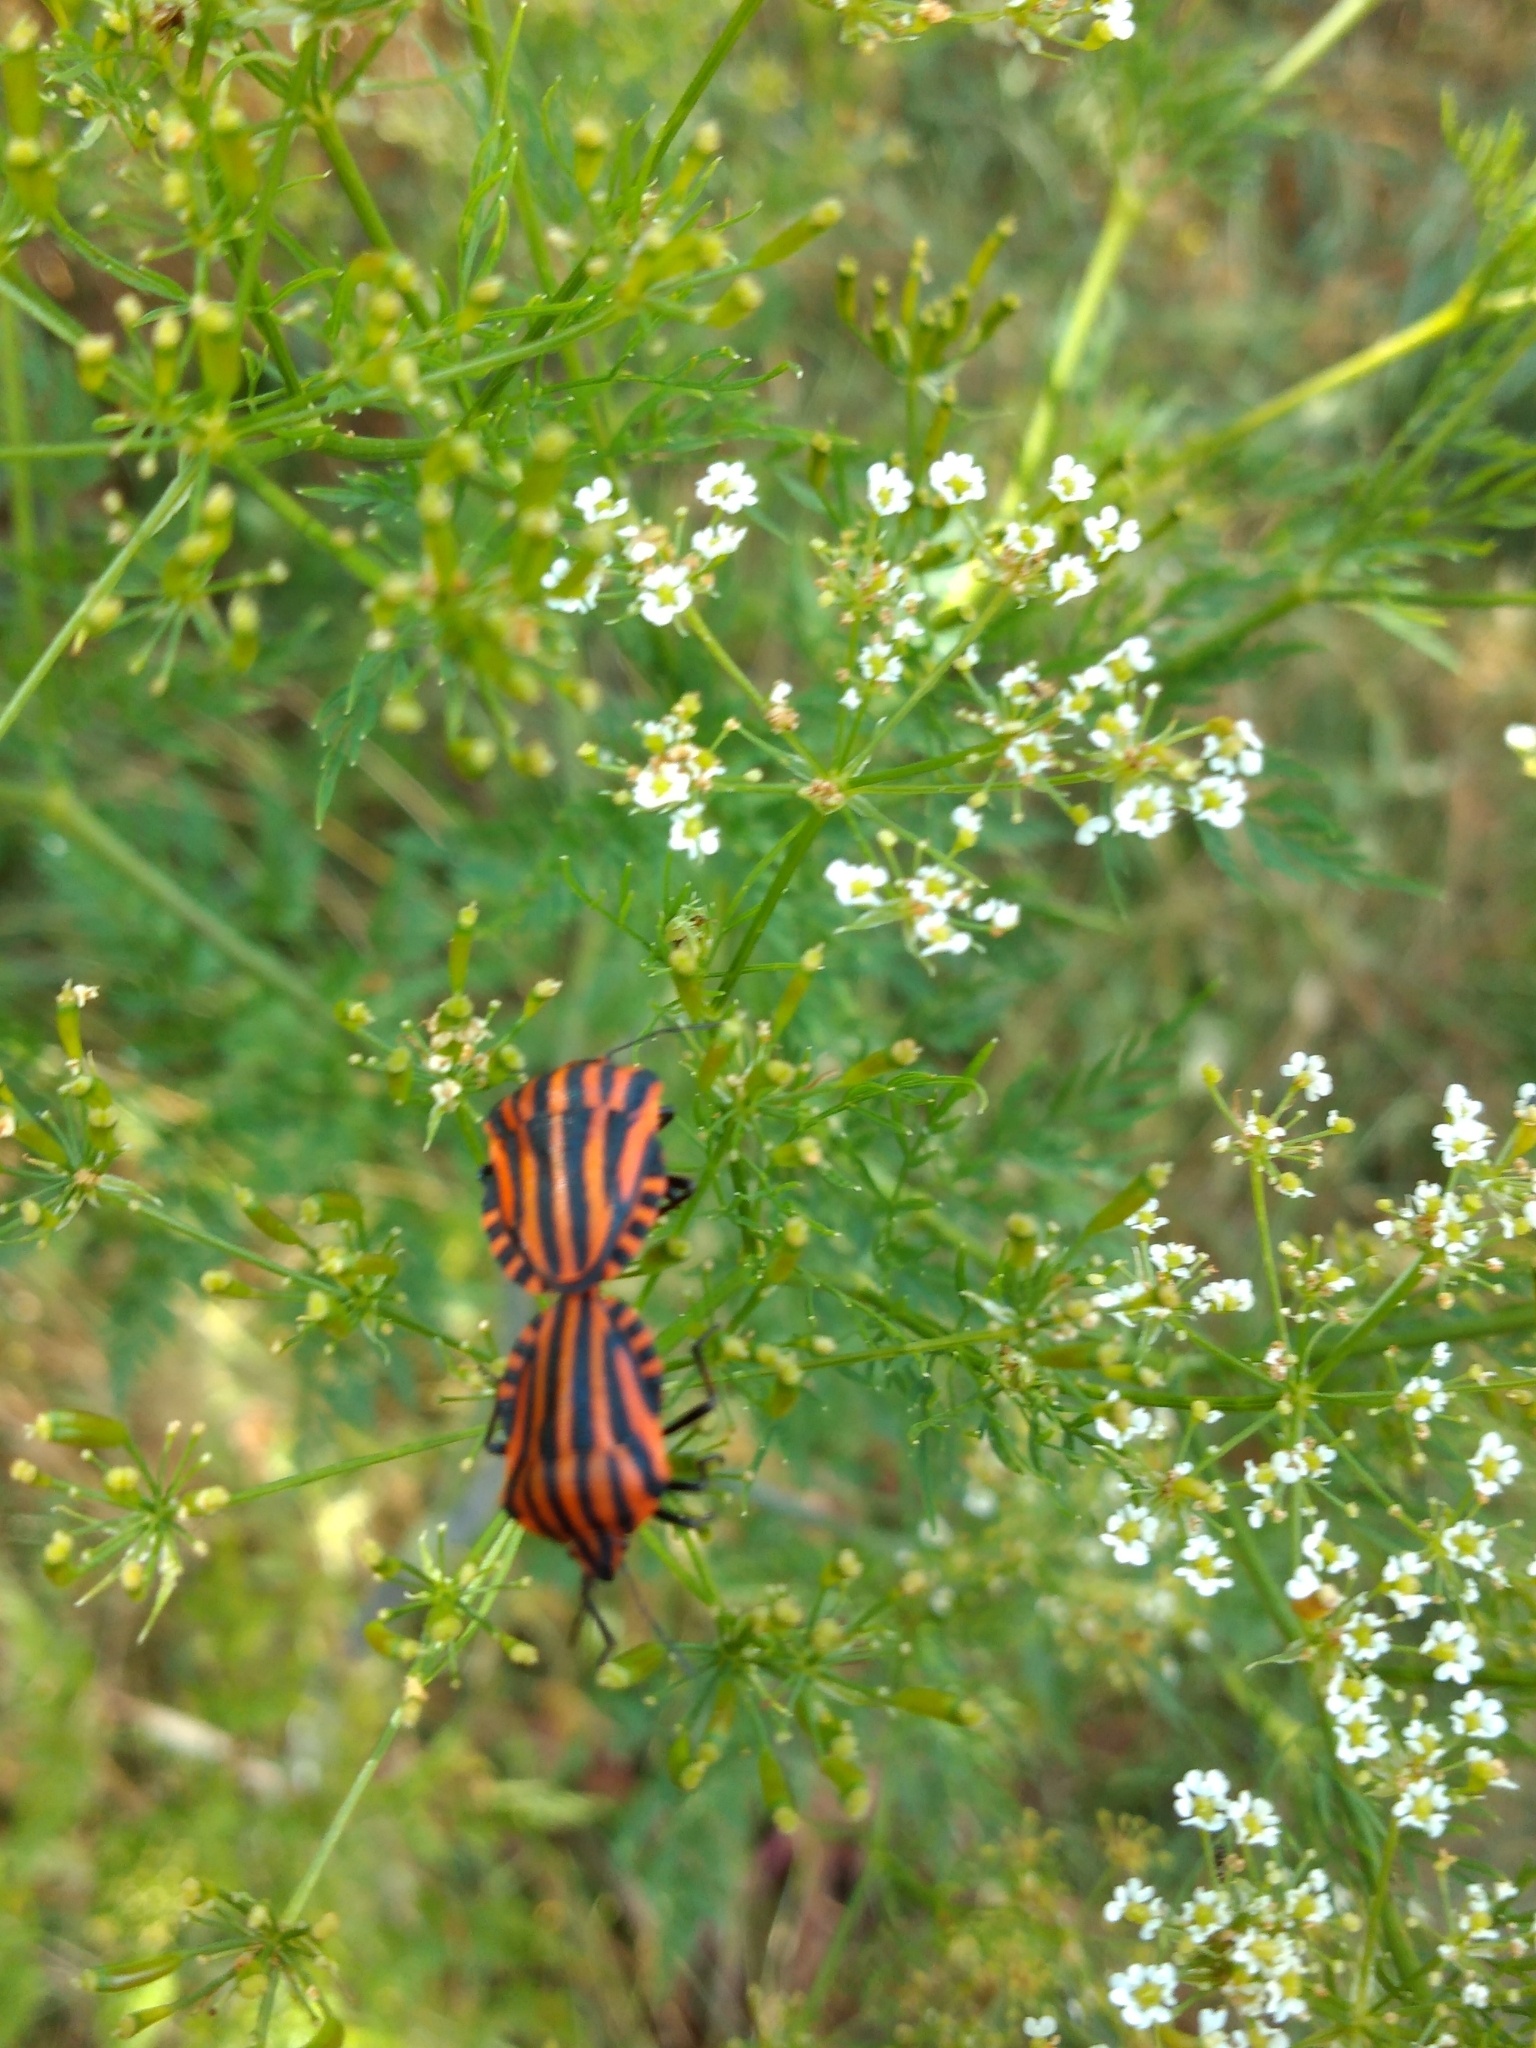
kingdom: Animalia
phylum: Arthropoda
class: Insecta
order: Hemiptera
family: Pentatomidae
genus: Graphosoma
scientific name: Graphosoma italicum
